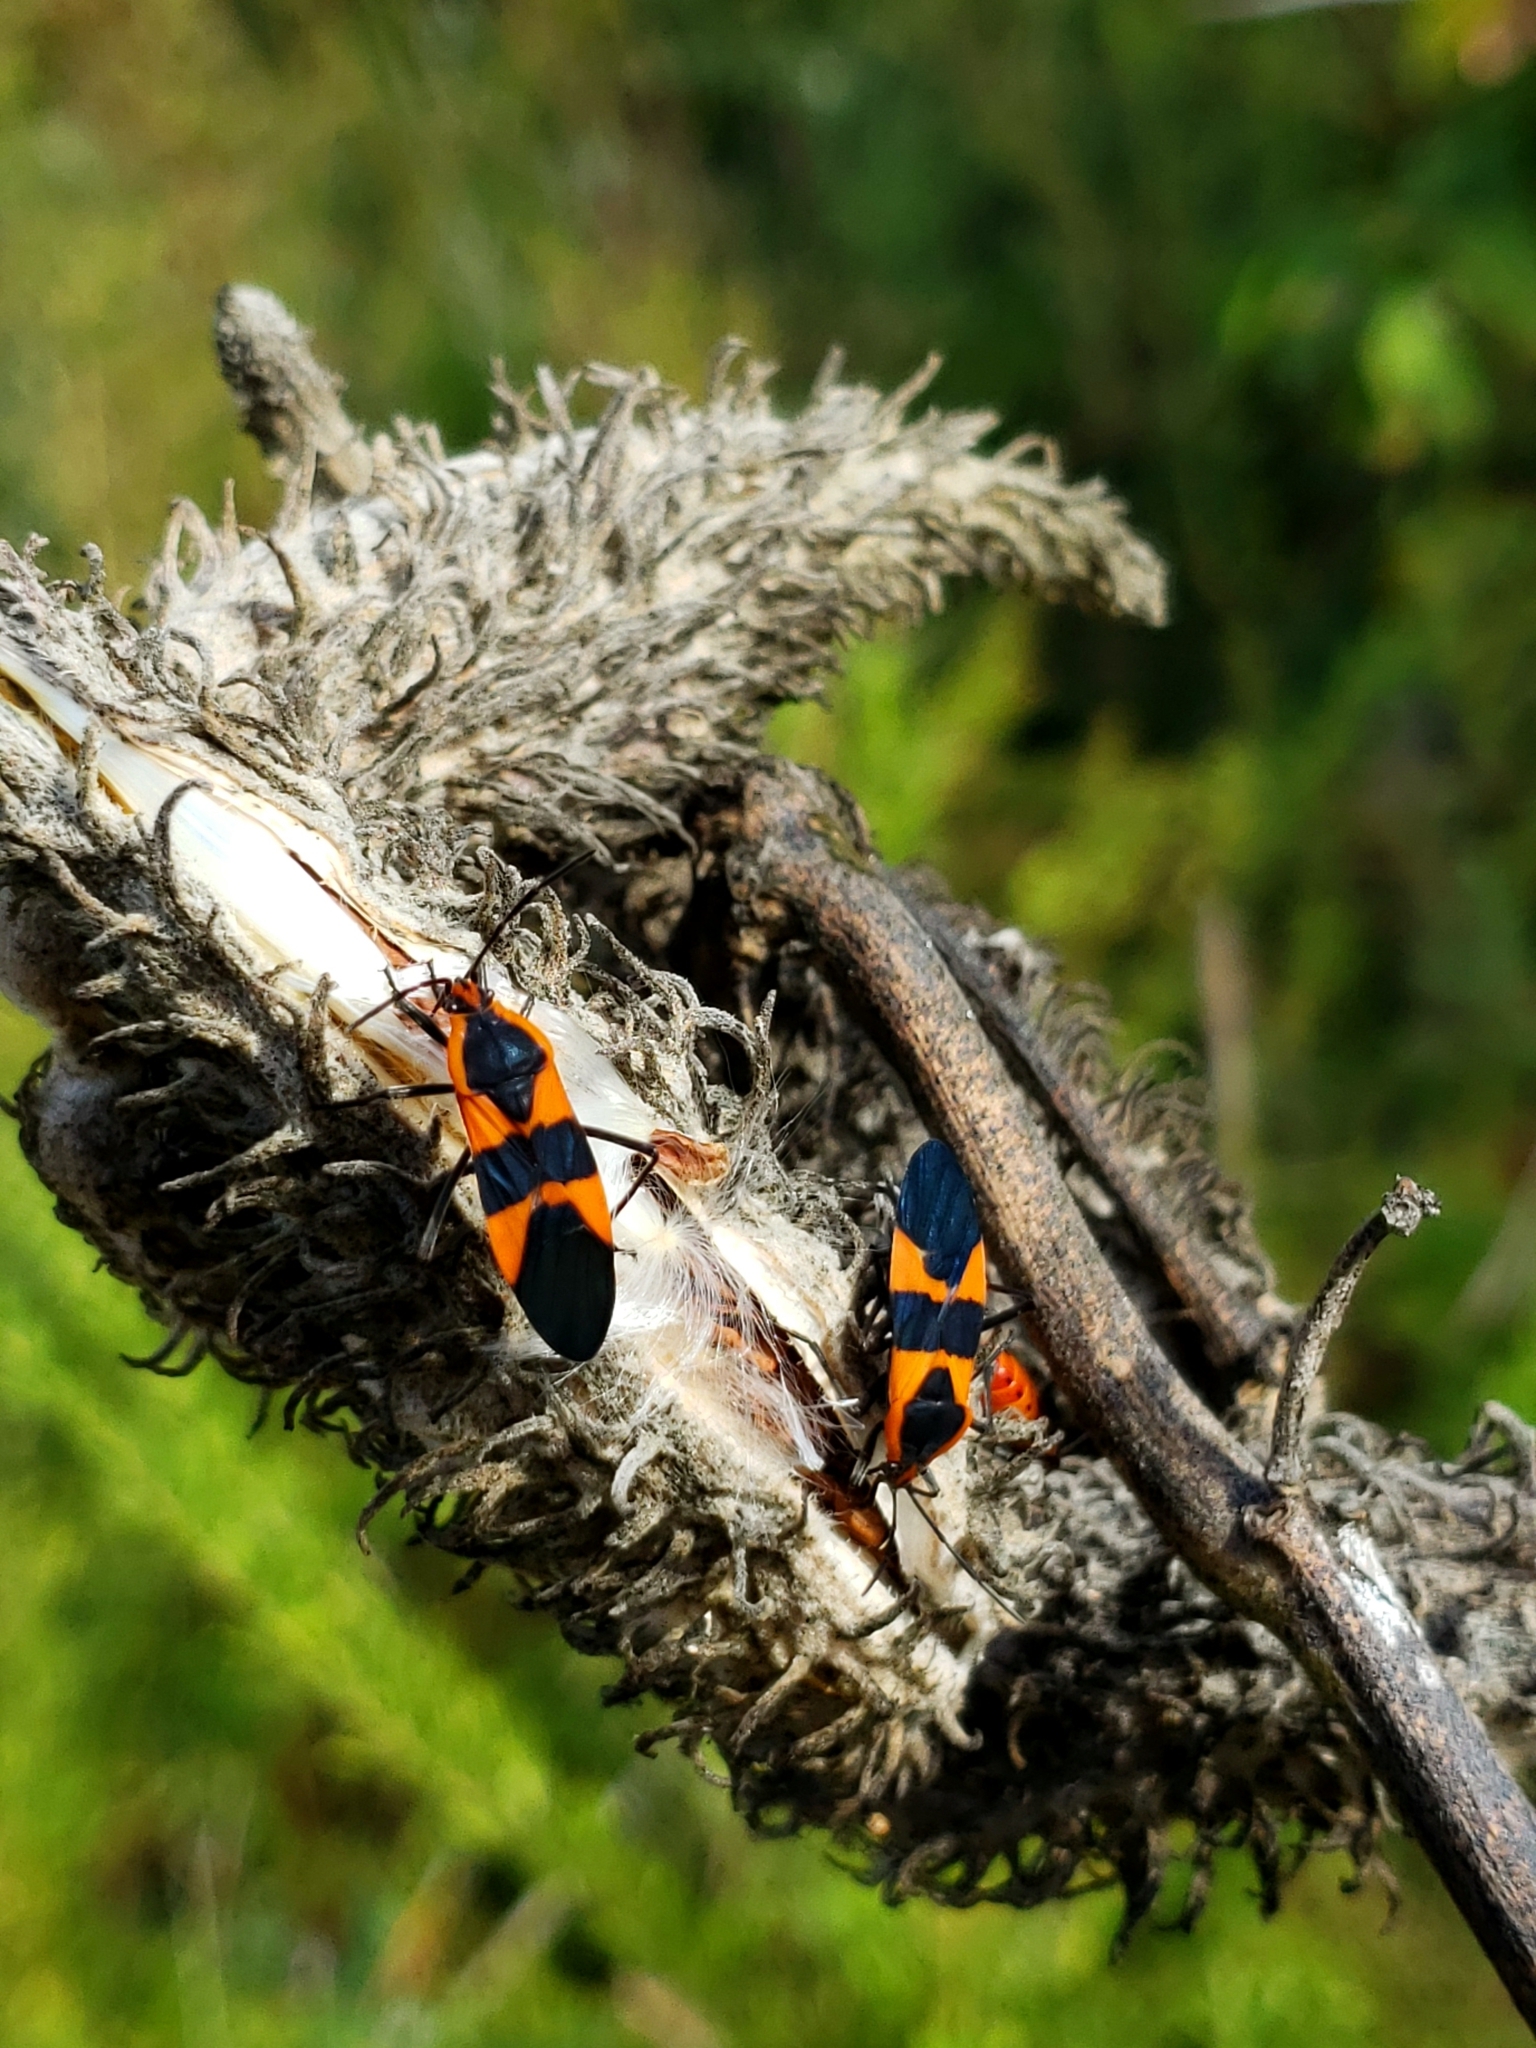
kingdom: Animalia
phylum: Arthropoda
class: Insecta
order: Hemiptera
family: Lygaeidae
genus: Oncopeltus
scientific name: Oncopeltus fasciatus
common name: Large milkweed bug
